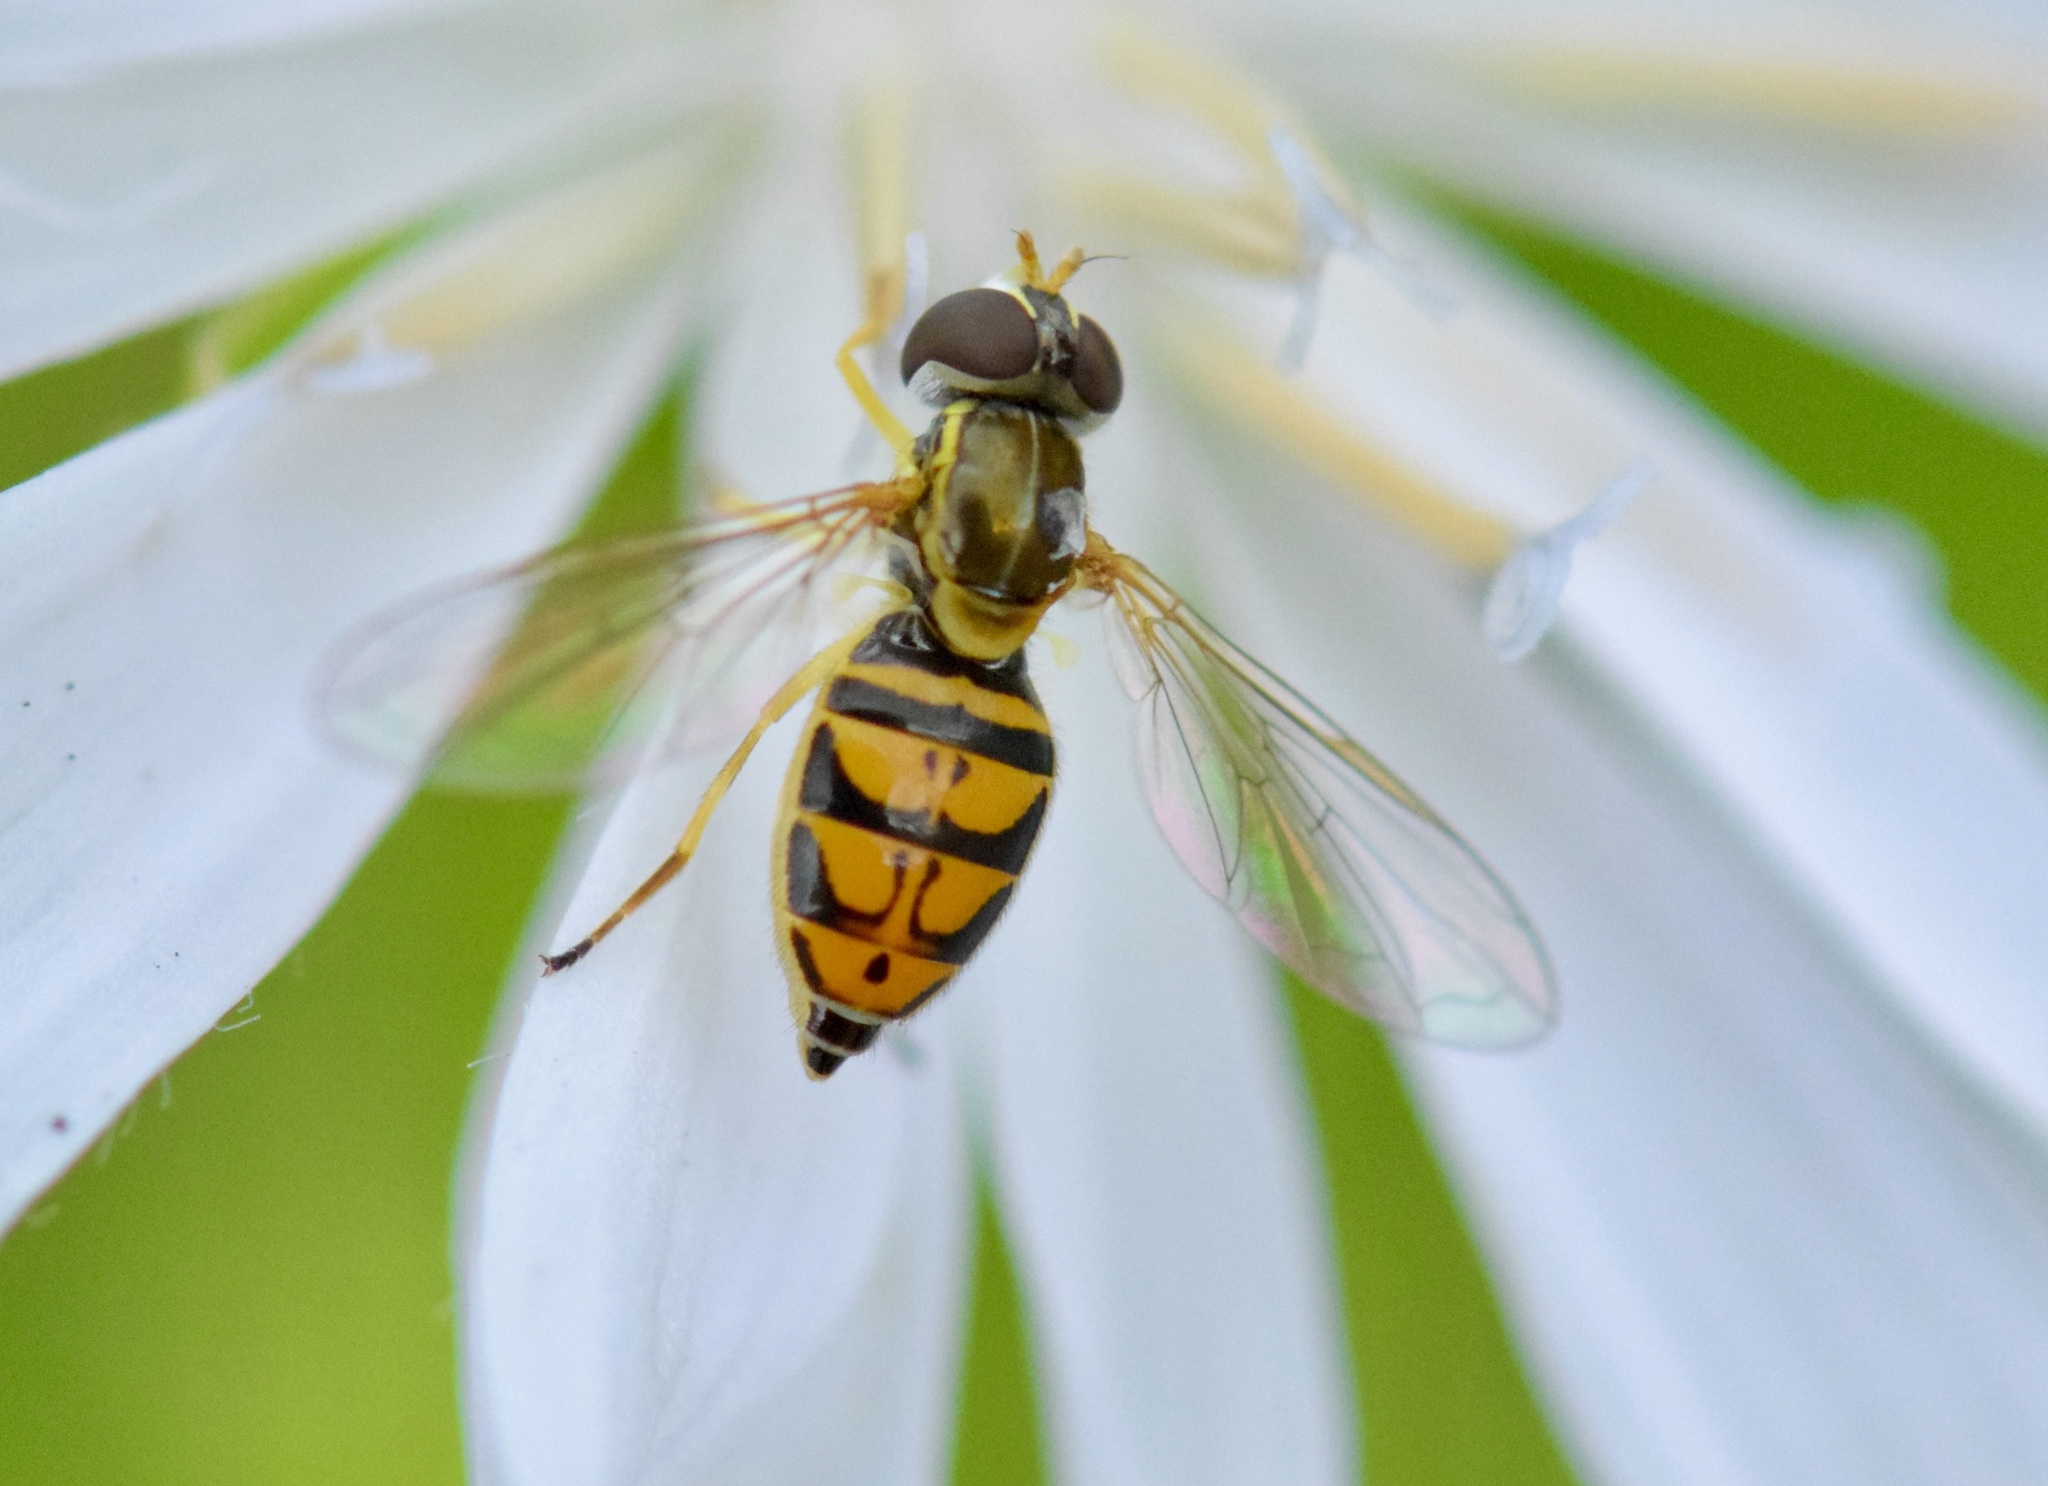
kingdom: Animalia
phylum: Arthropoda
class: Insecta
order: Diptera
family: Syrphidae
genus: Toxomerus
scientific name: Toxomerus marginatus
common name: Syrphid fly
